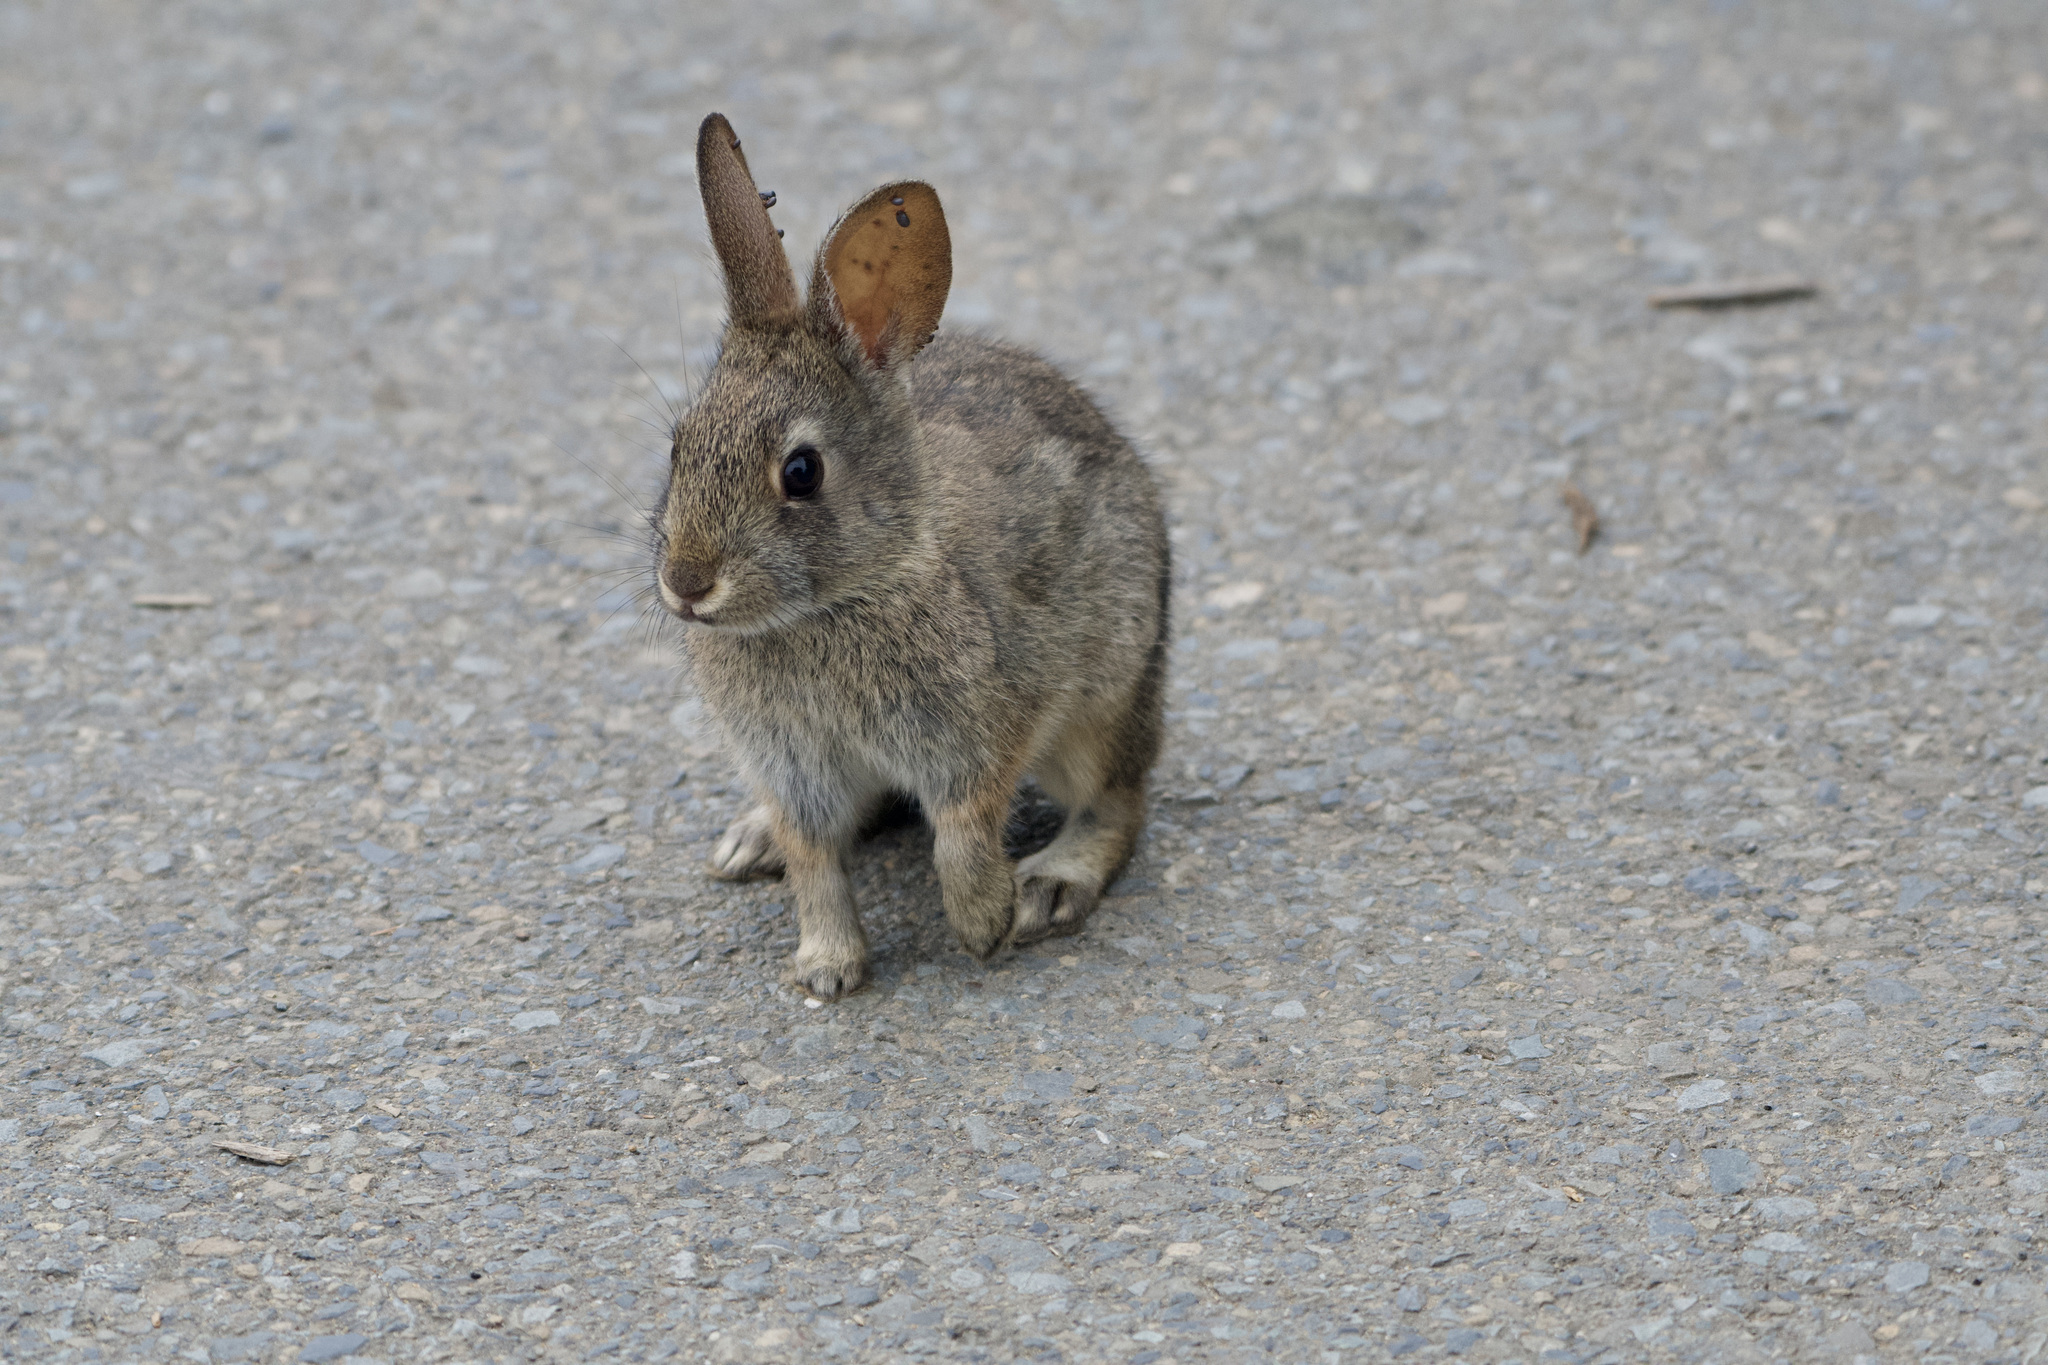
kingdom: Animalia
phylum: Chordata
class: Mammalia
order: Lagomorpha
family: Leporidae
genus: Sylvilagus
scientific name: Sylvilagus bachmani
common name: Brush rabbit
